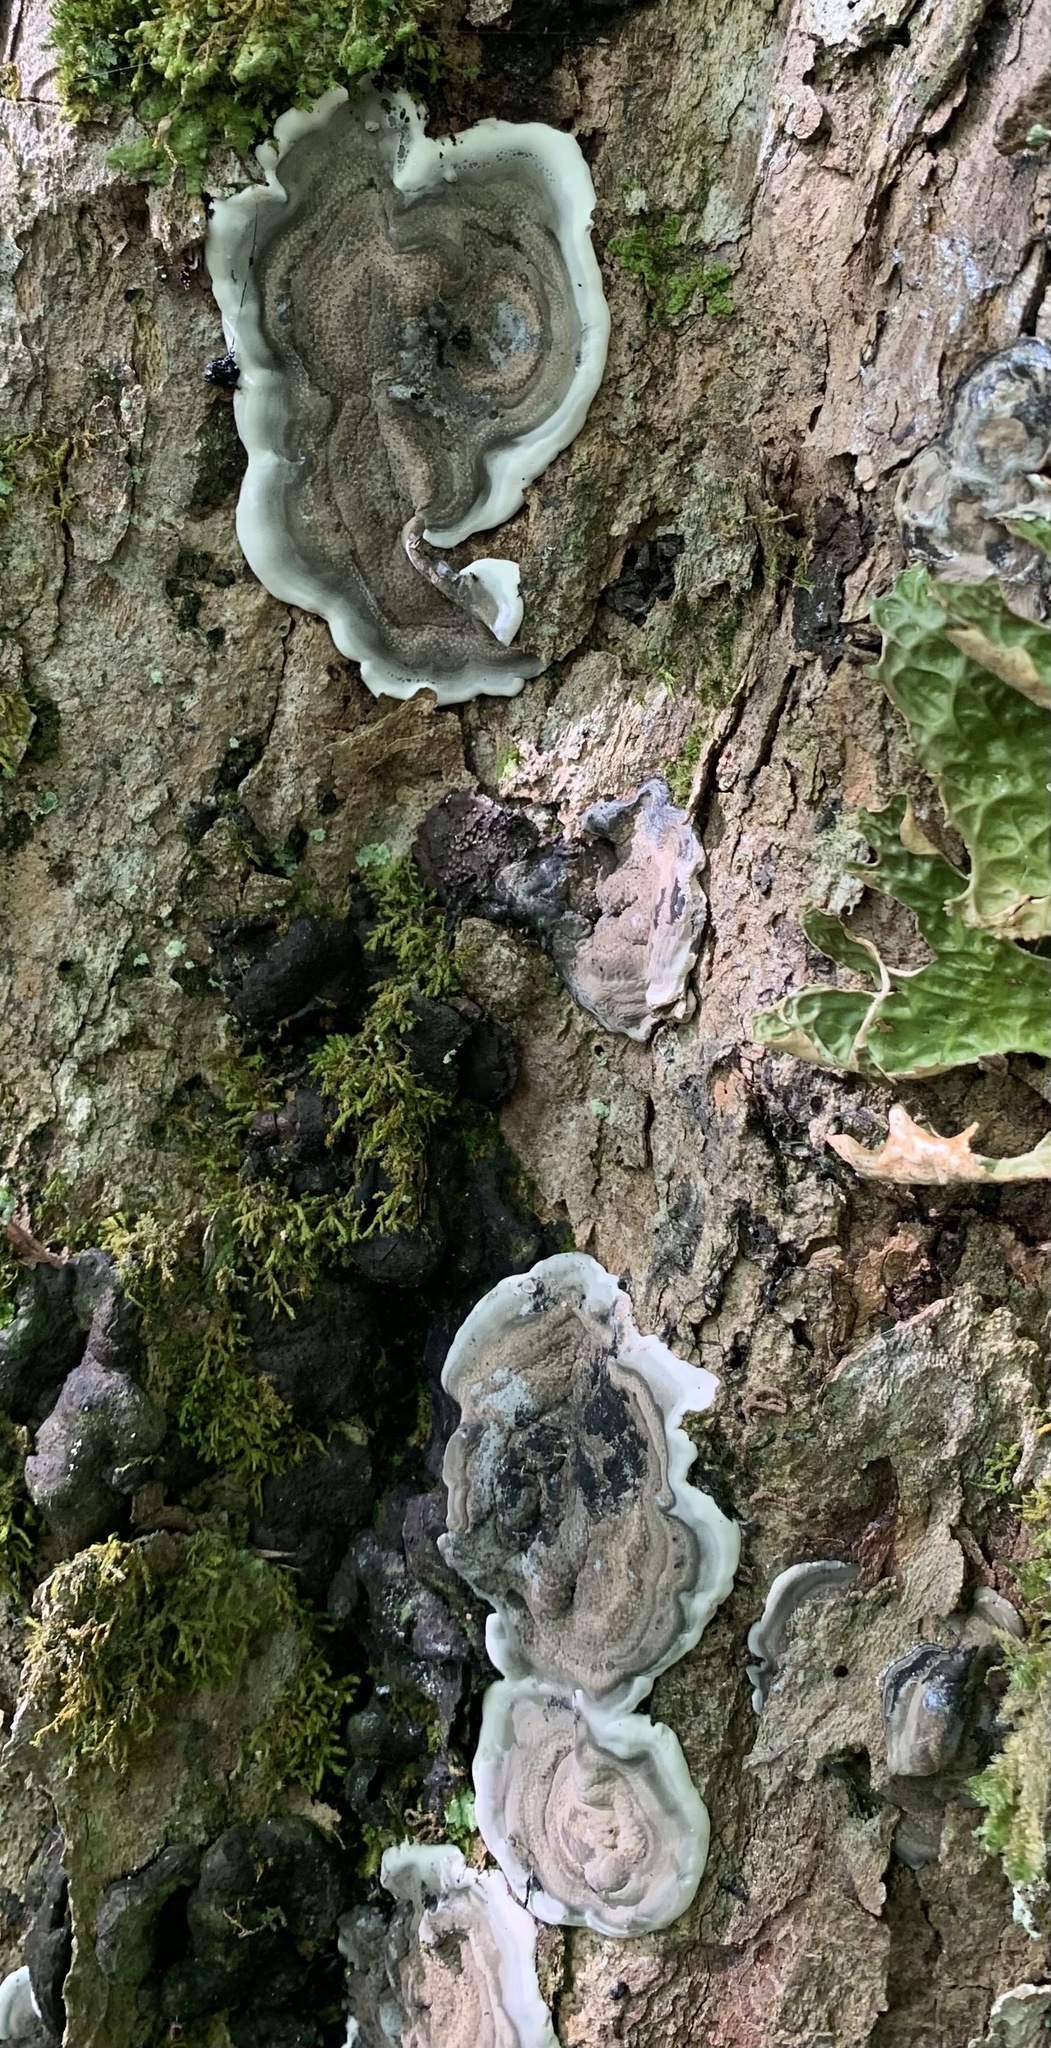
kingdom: Fungi
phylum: Ascomycota
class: Sordariomycetes
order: Xylariales
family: Xylariaceae
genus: Kretzschmaria
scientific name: Kretzschmaria deusta
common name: Brittle cinder
